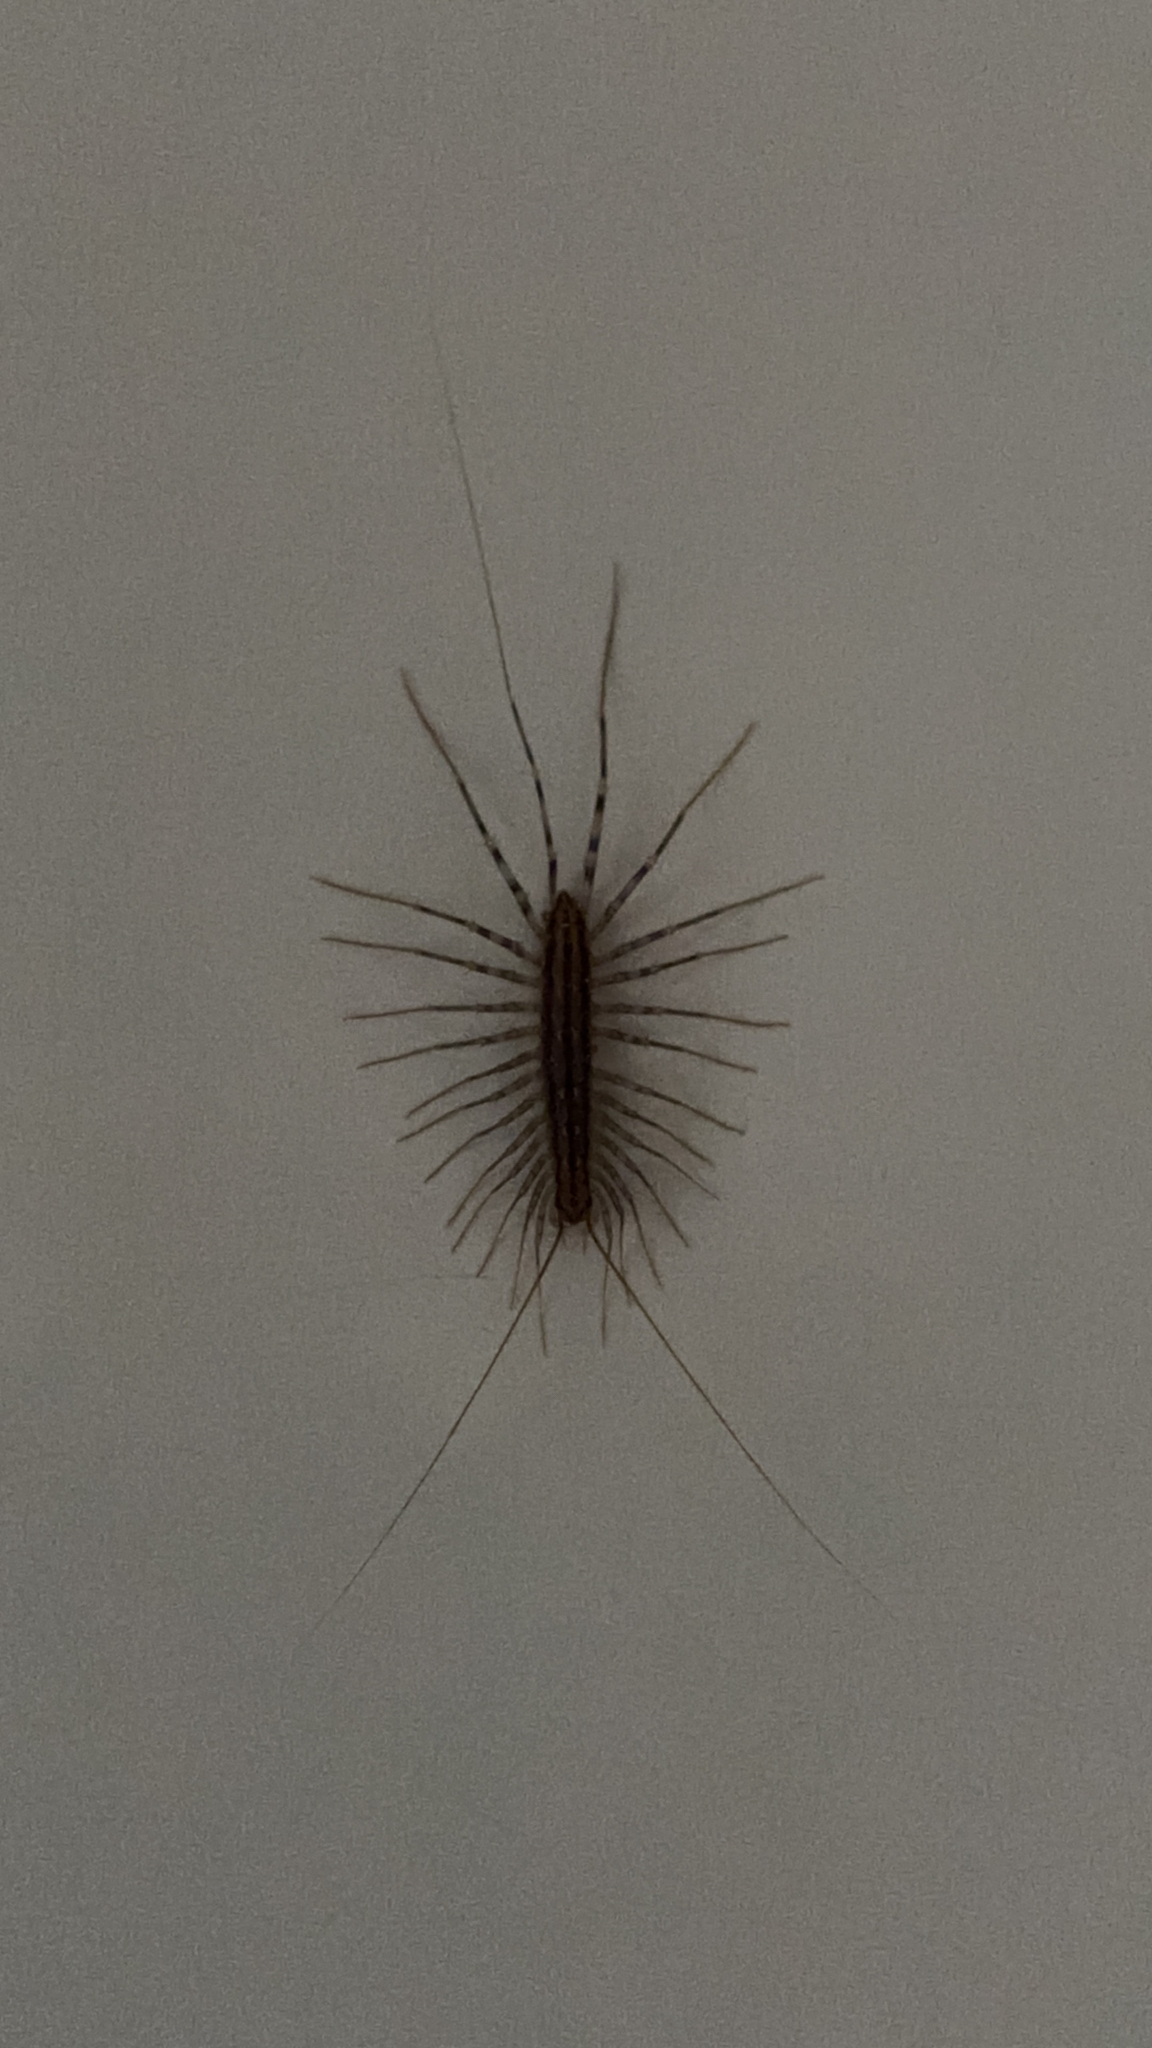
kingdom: Animalia
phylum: Arthropoda
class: Chilopoda
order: Scutigeromorpha
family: Scutigeridae
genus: Scutigera
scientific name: Scutigera coleoptrata
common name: House centipede
